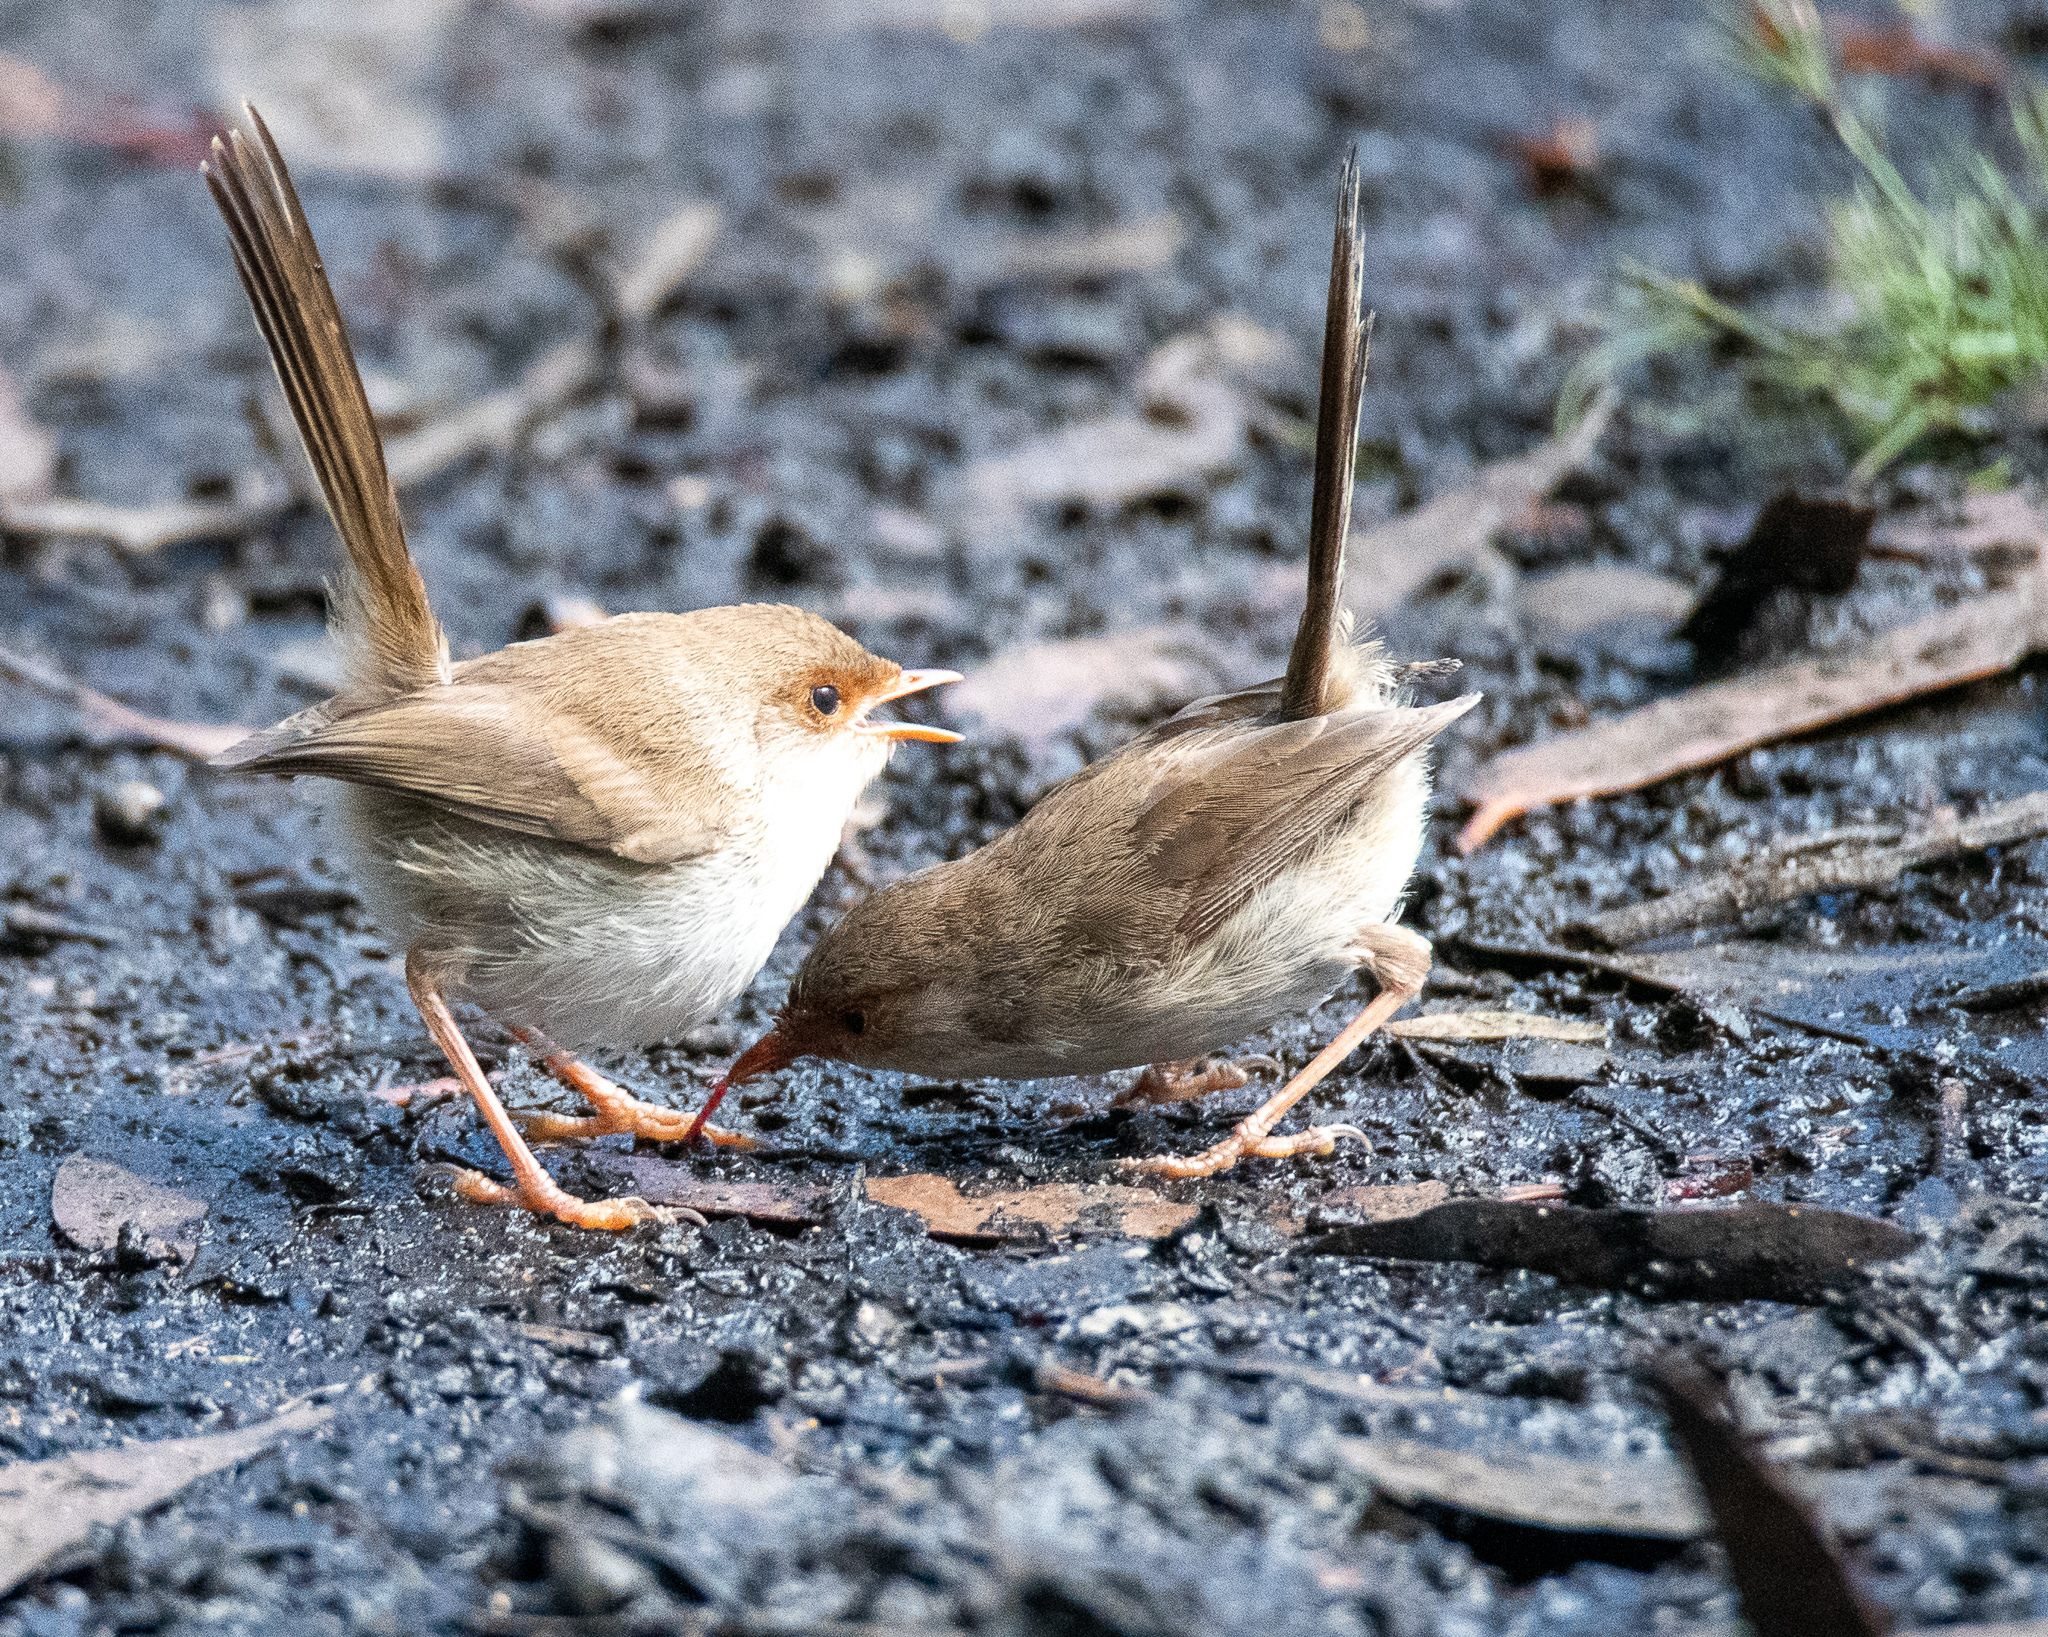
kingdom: Animalia
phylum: Chordata
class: Aves
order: Passeriformes
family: Maluridae
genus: Malurus
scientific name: Malurus cyaneus
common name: Superb fairywren
